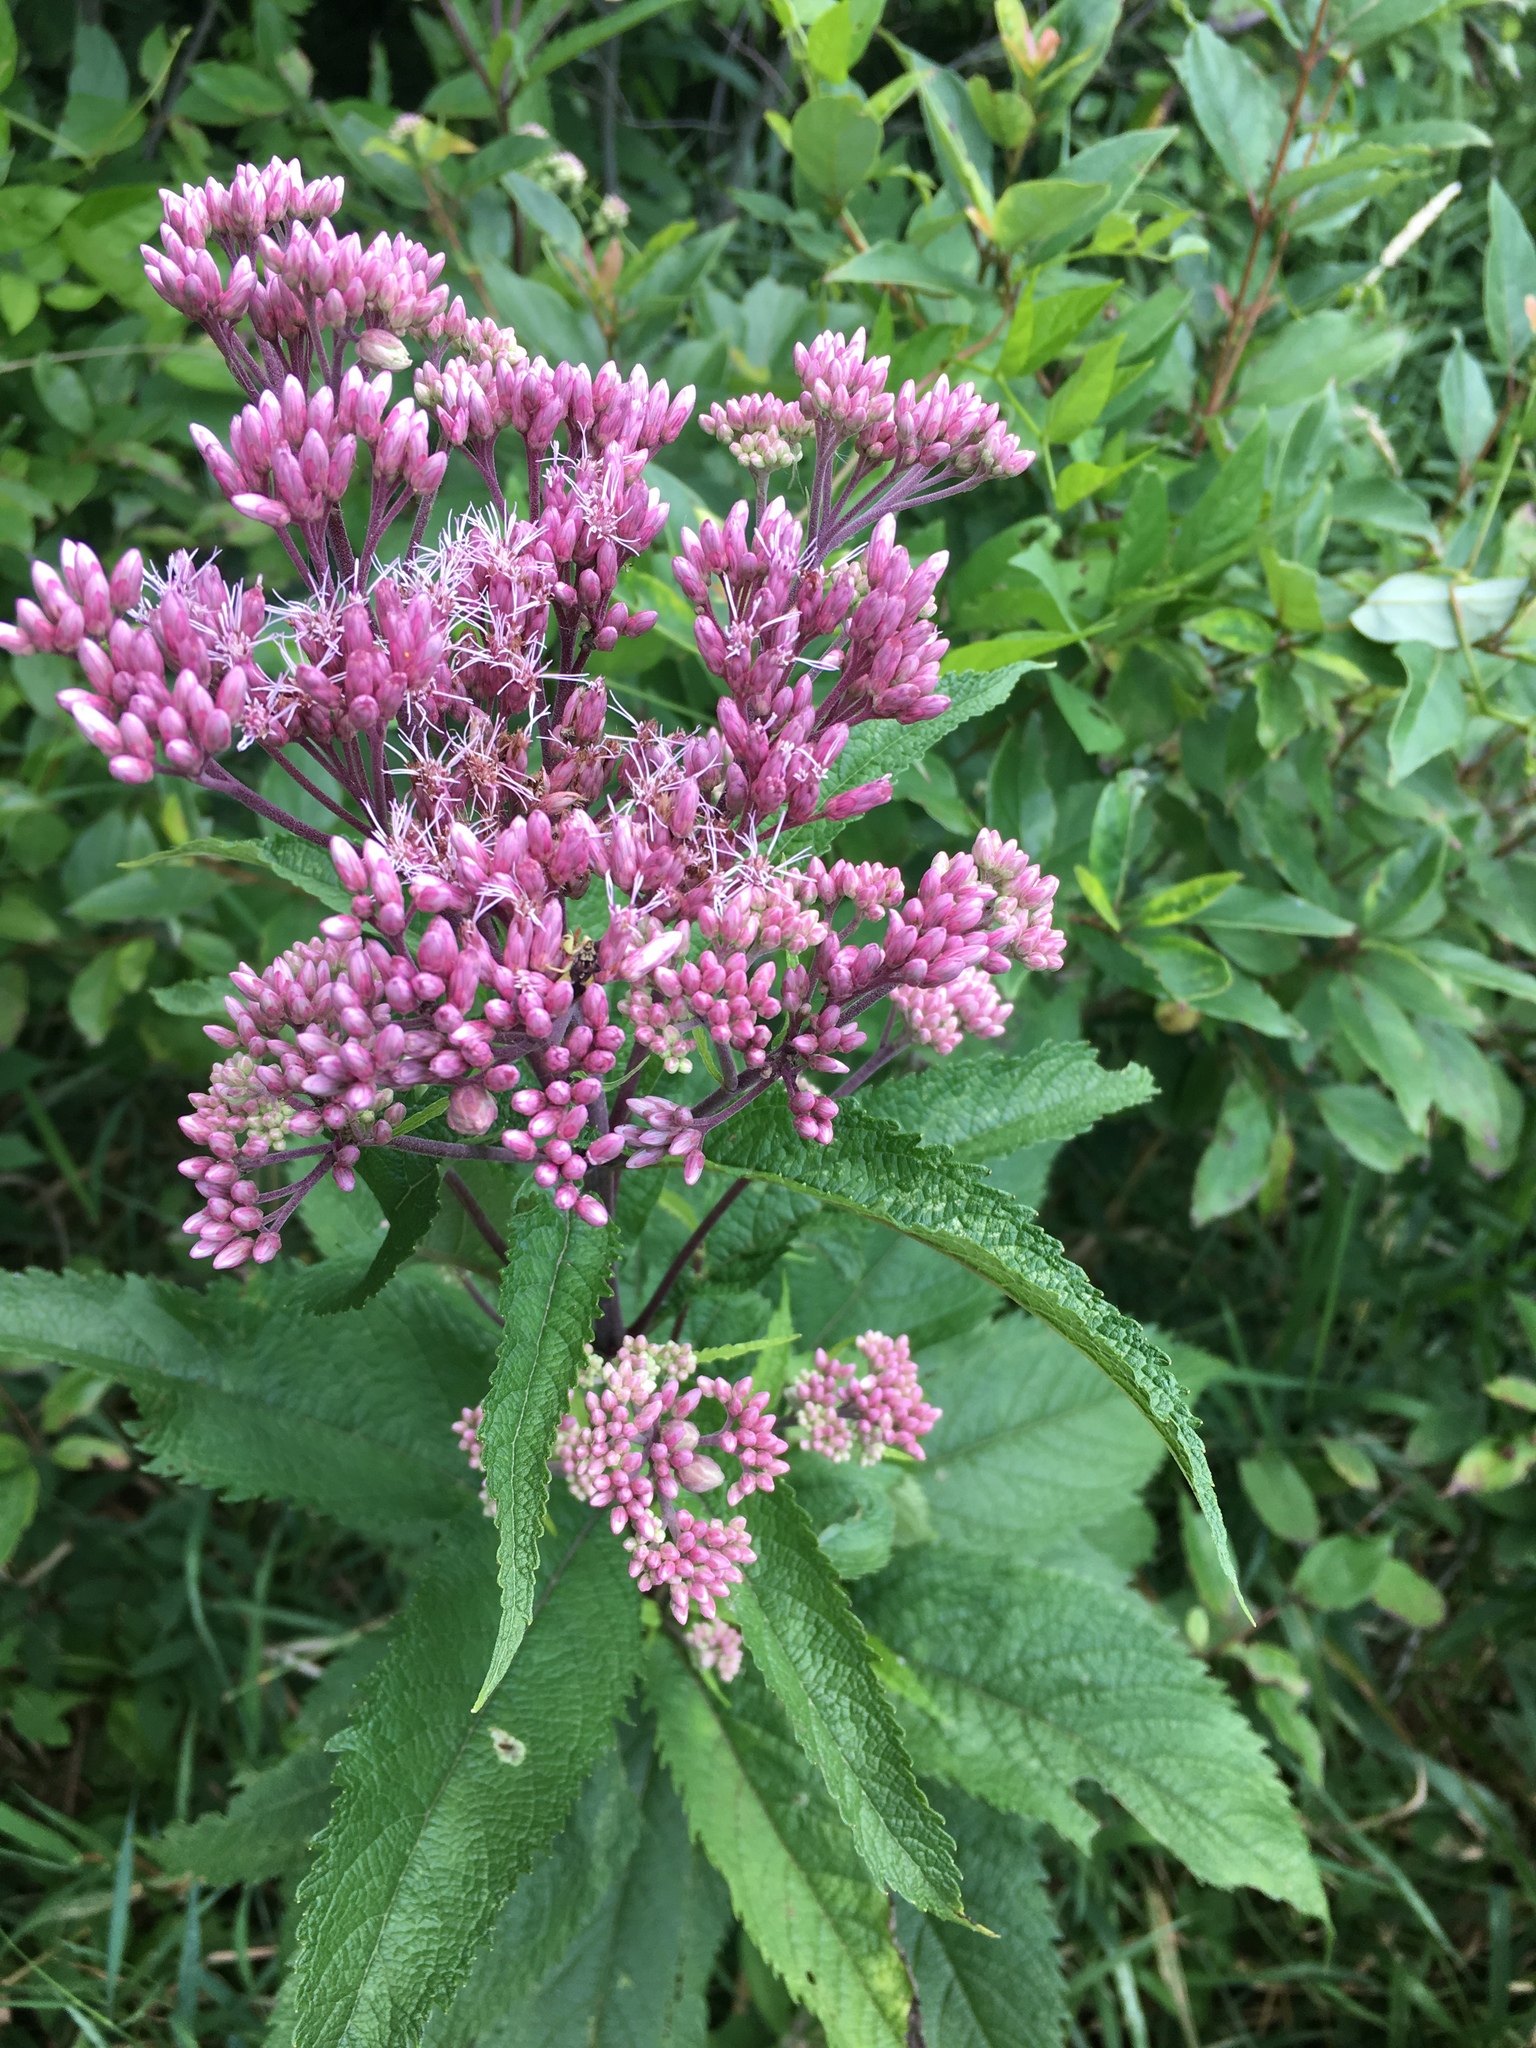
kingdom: Plantae
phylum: Tracheophyta
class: Magnoliopsida
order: Asterales
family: Asteraceae
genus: Eutrochium
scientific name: Eutrochium maculatum
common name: Spotted joe pye weed
